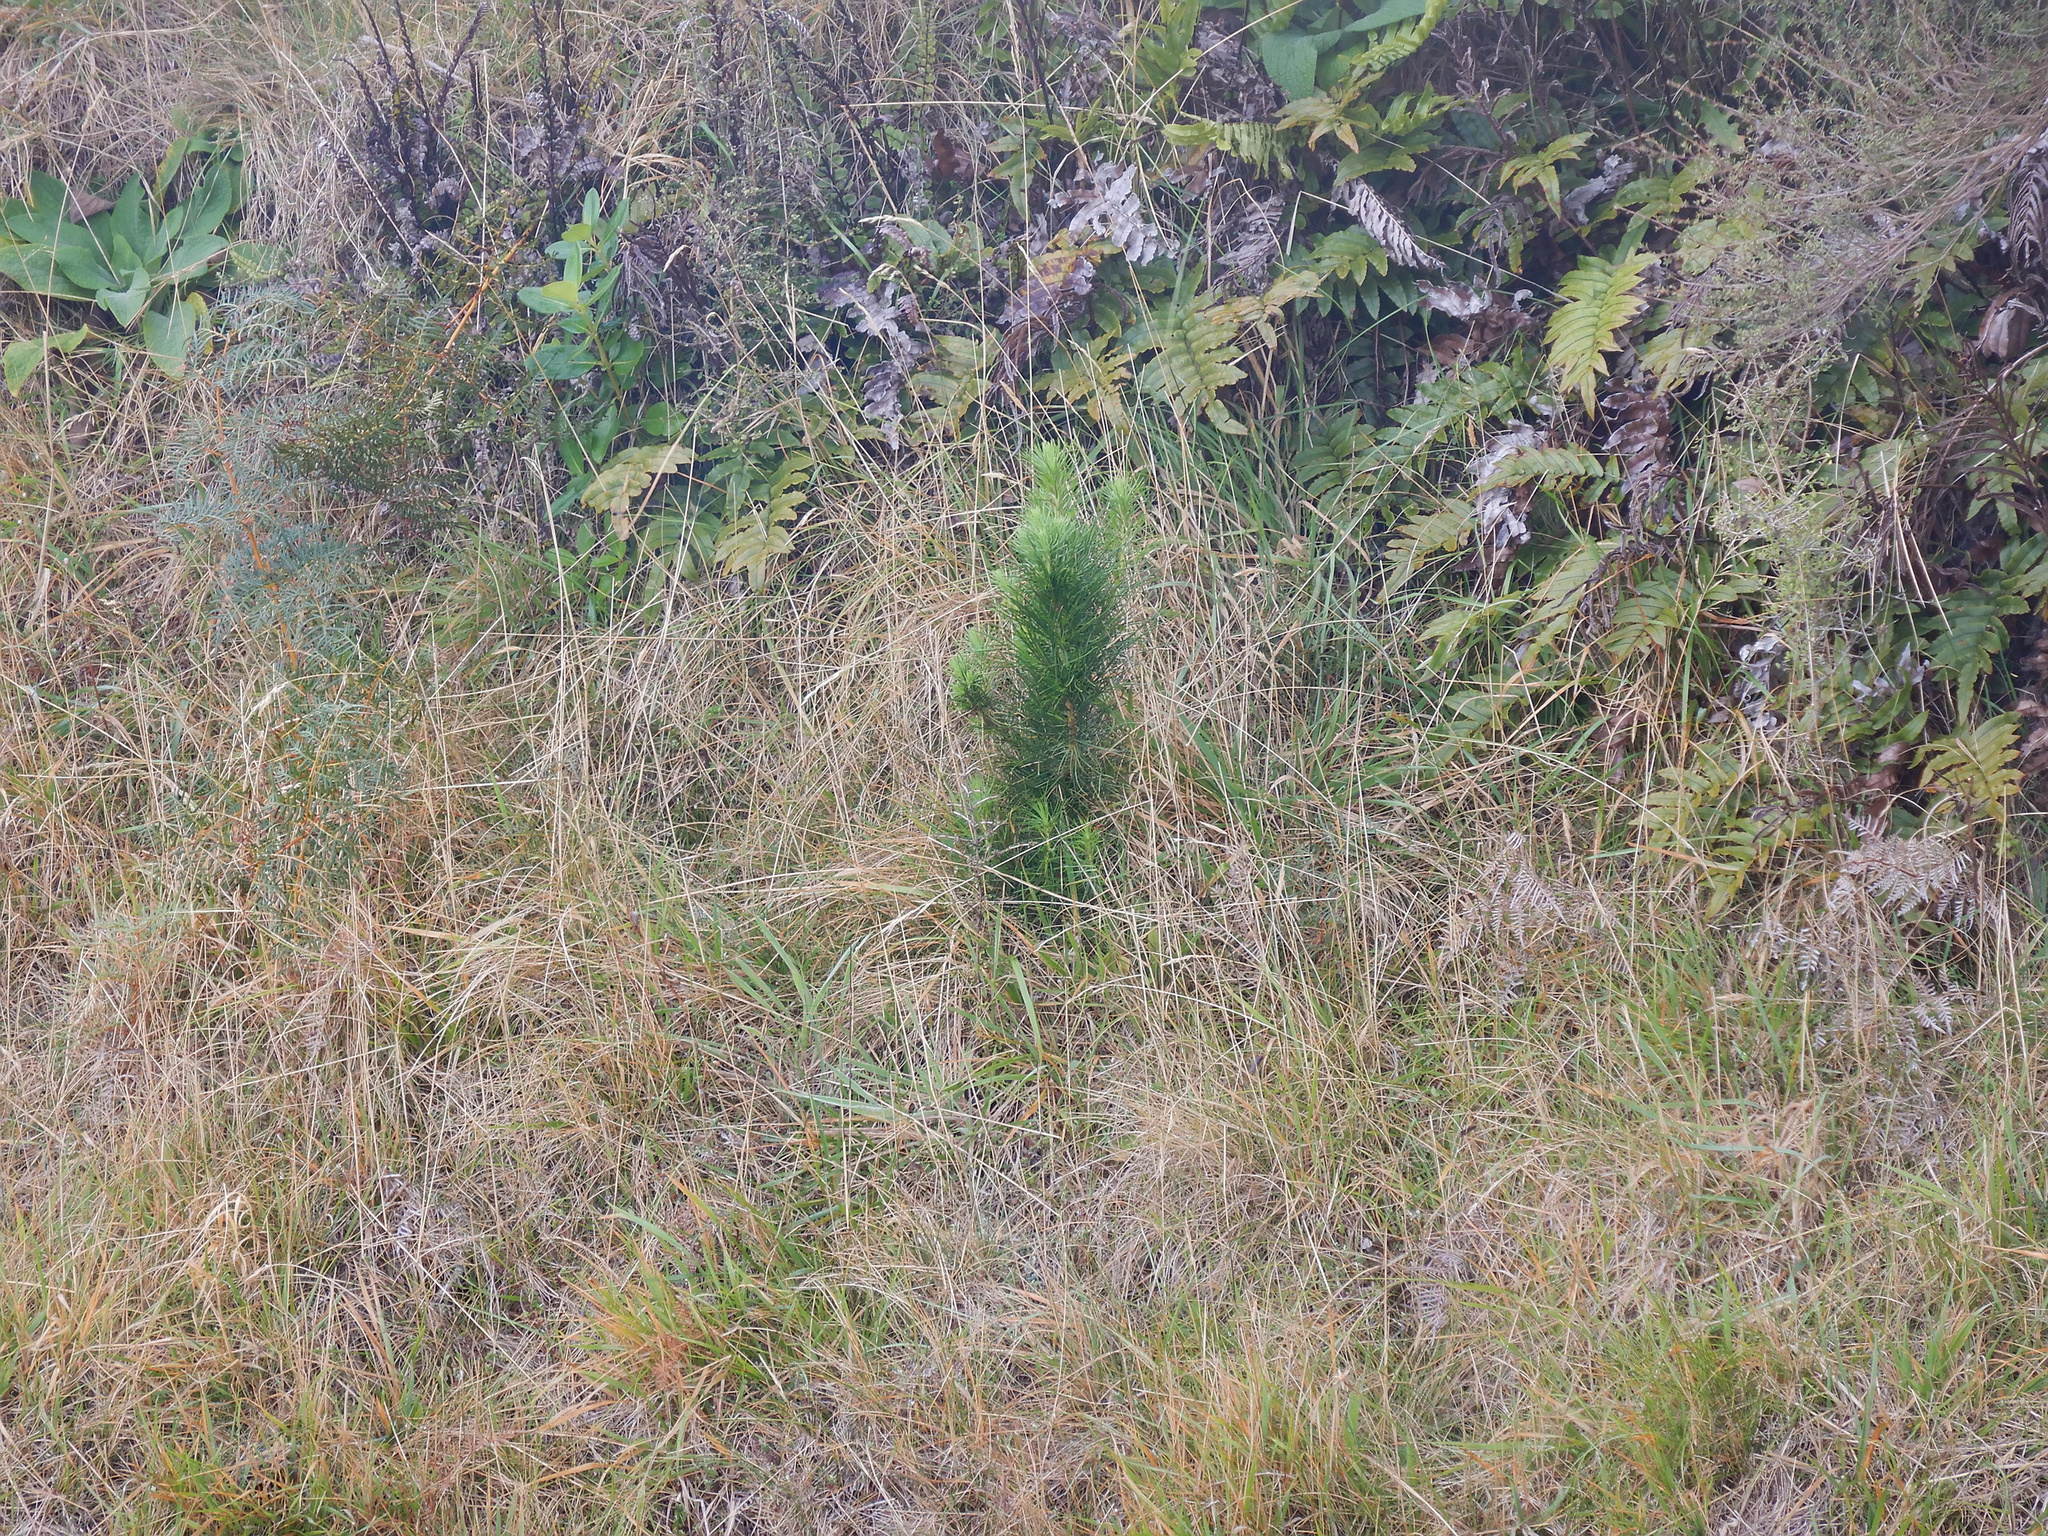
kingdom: Plantae
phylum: Tracheophyta
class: Pinopsida
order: Pinales
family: Pinaceae
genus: Pinus
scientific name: Pinus radiata
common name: Monterey pine
